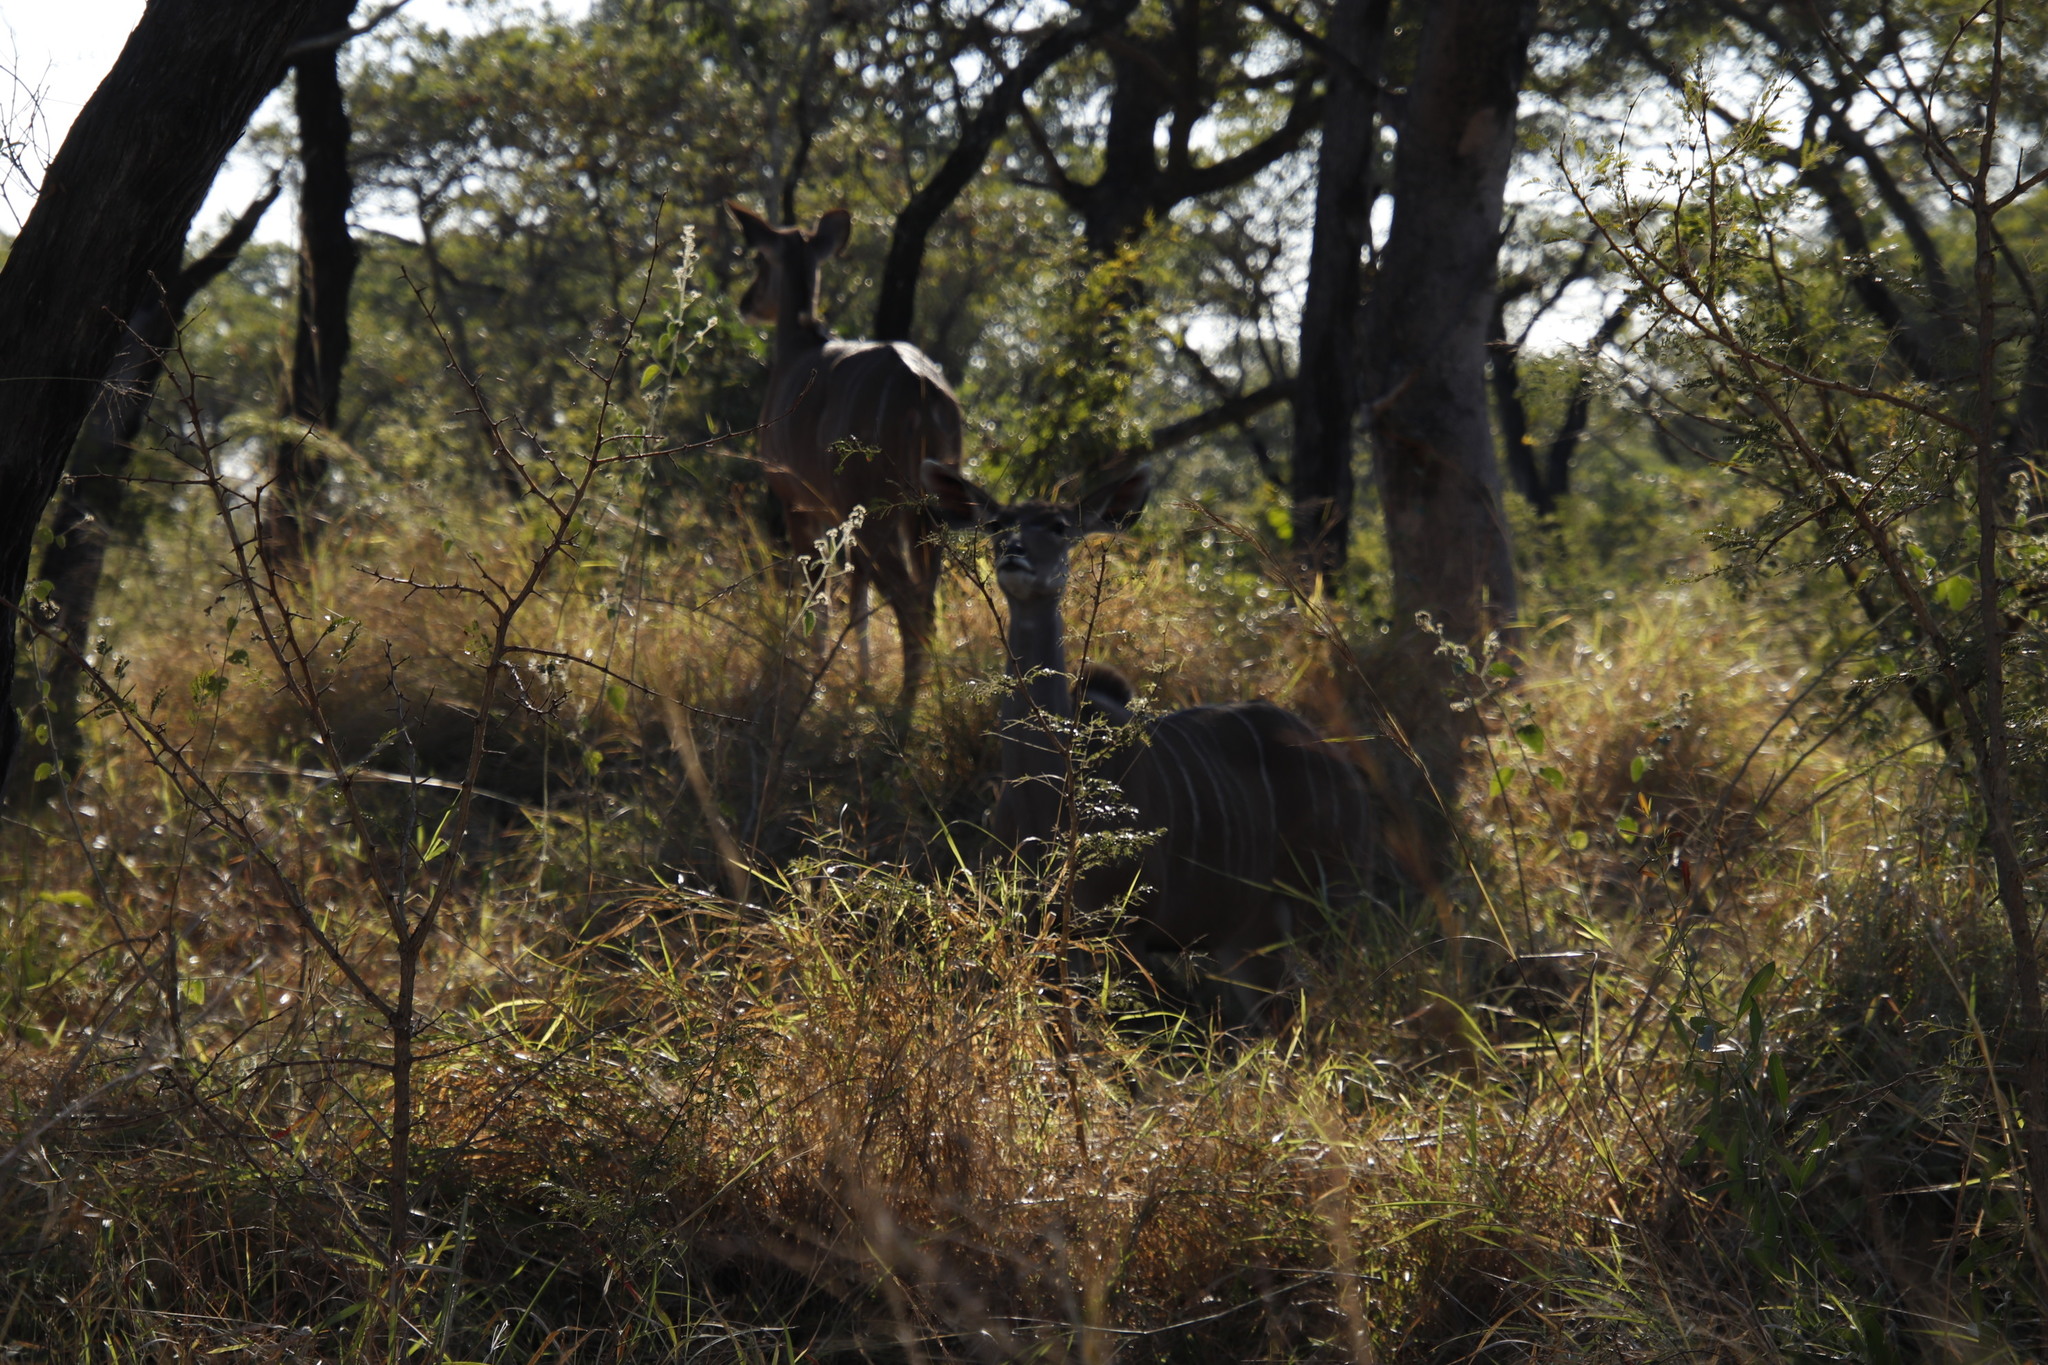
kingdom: Animalia
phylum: Chordata
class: Mammalia
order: Artiodactyla
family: Bovidae
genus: Tragelaphus
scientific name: Tragelaphus strepsiceros
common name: Greater kudu
